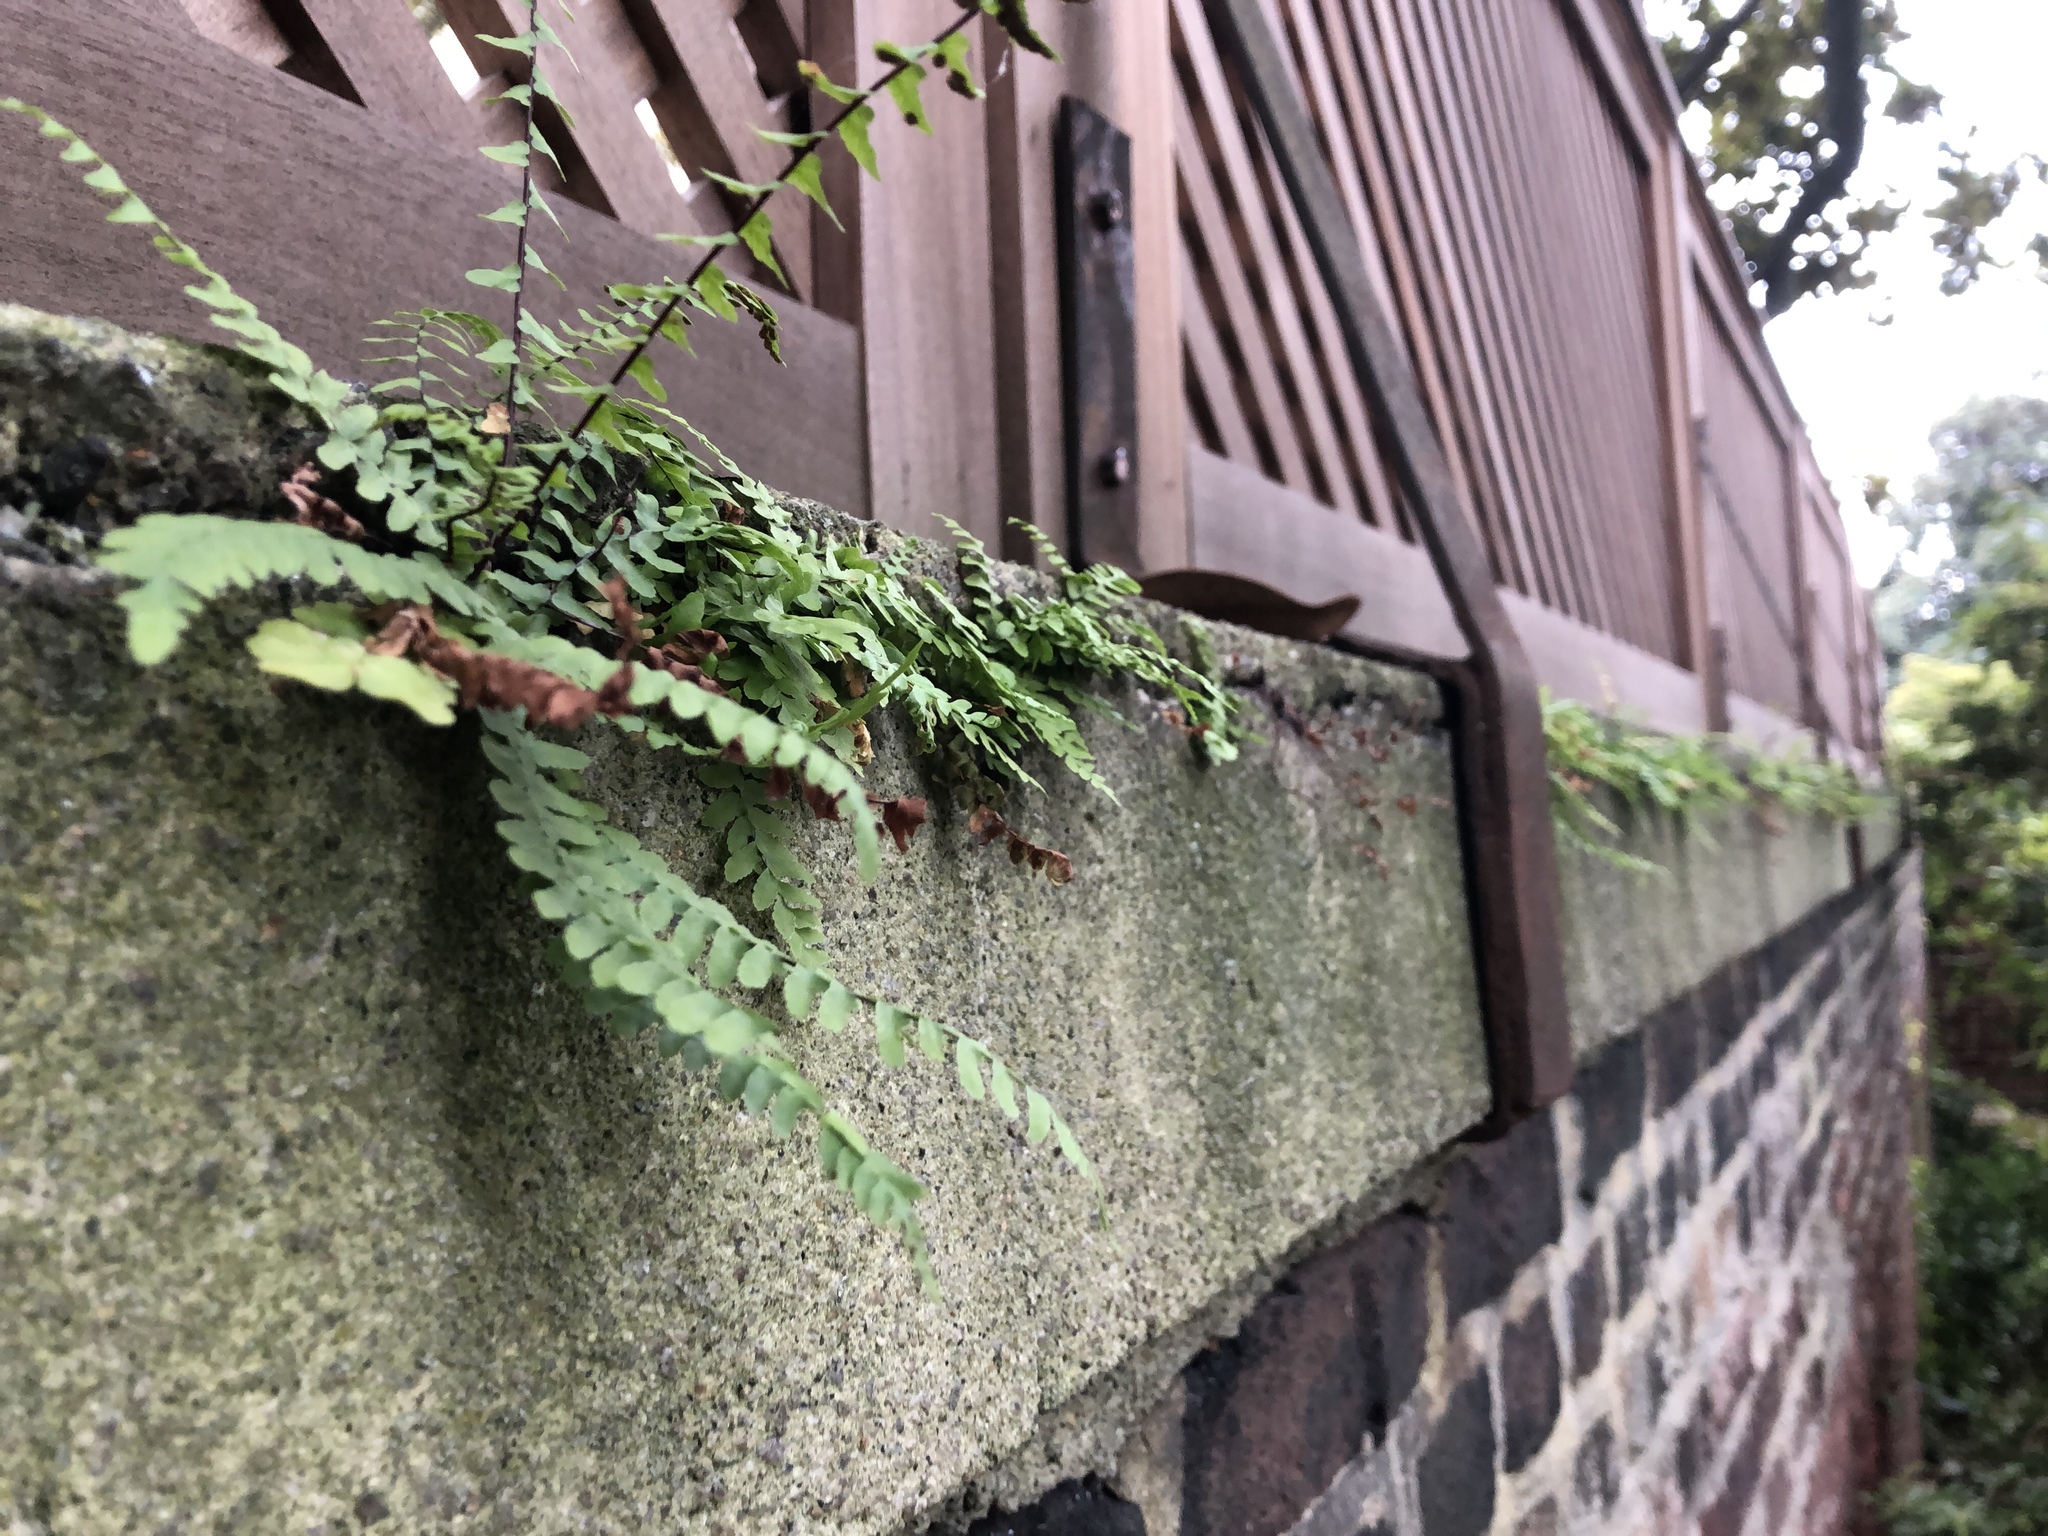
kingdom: Plantae
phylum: Tracheophyta
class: Polypodiopsida
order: Polypodiales
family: Aspleniaceae
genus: Asplenium
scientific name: Asplenium platyneuron
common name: Ebony spleenwort
